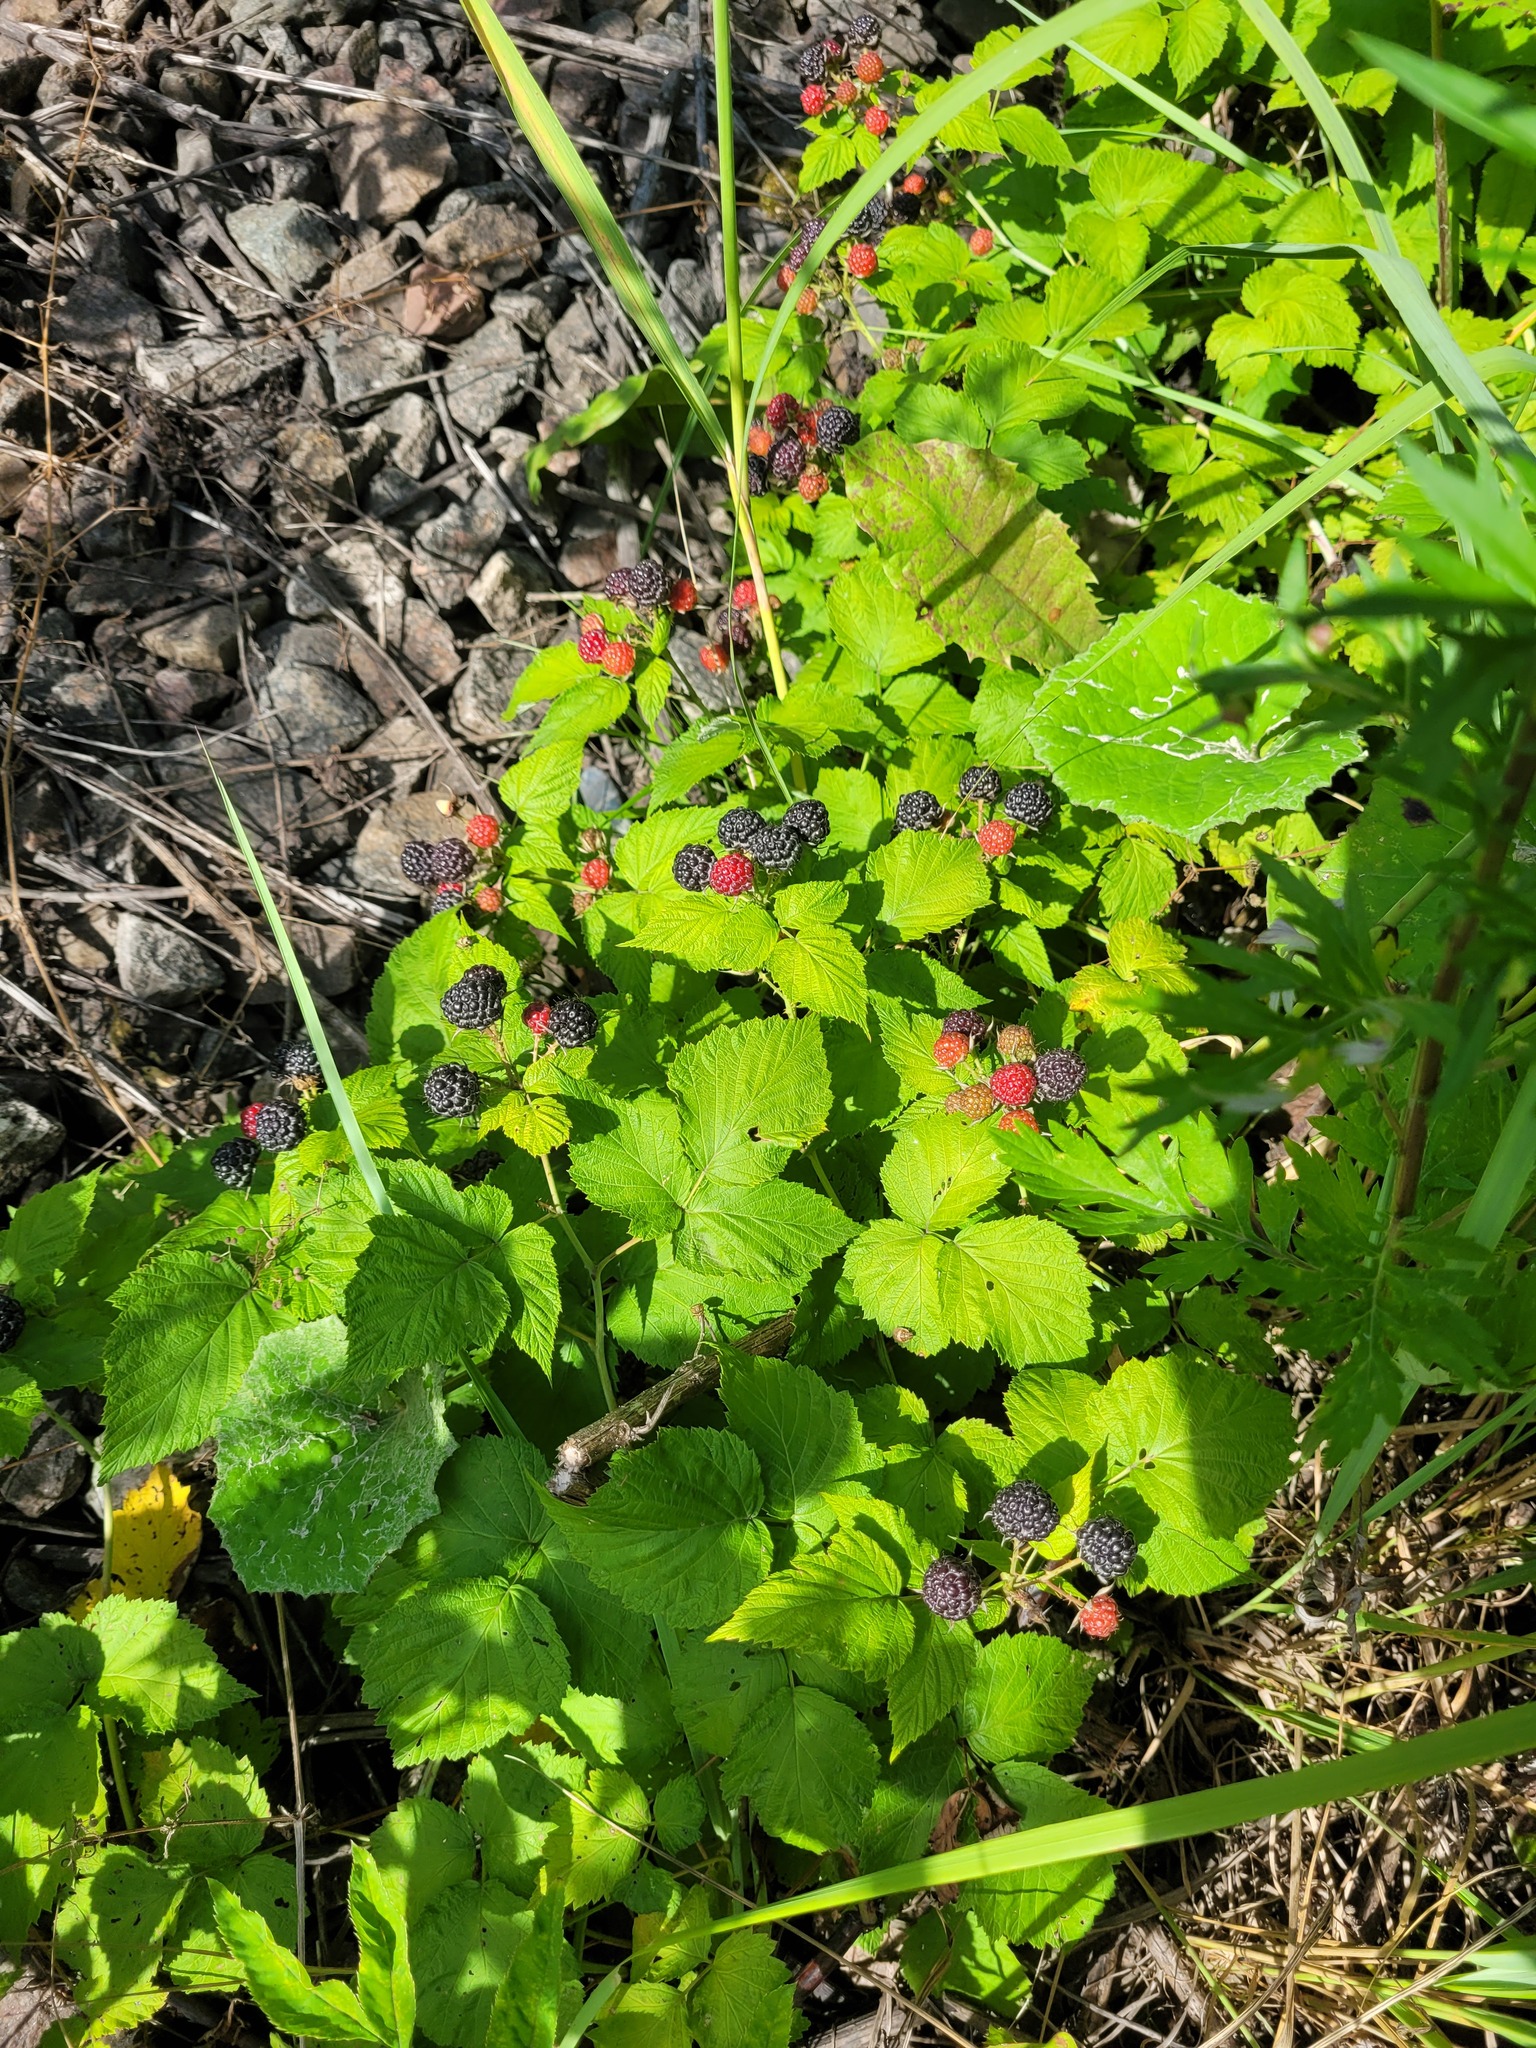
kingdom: Plantae
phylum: Tracheophyta
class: Magnoliopsida
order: Rosales
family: Rosaceae
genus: Rubus
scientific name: Rubus occidentalis
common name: Black raspberry
